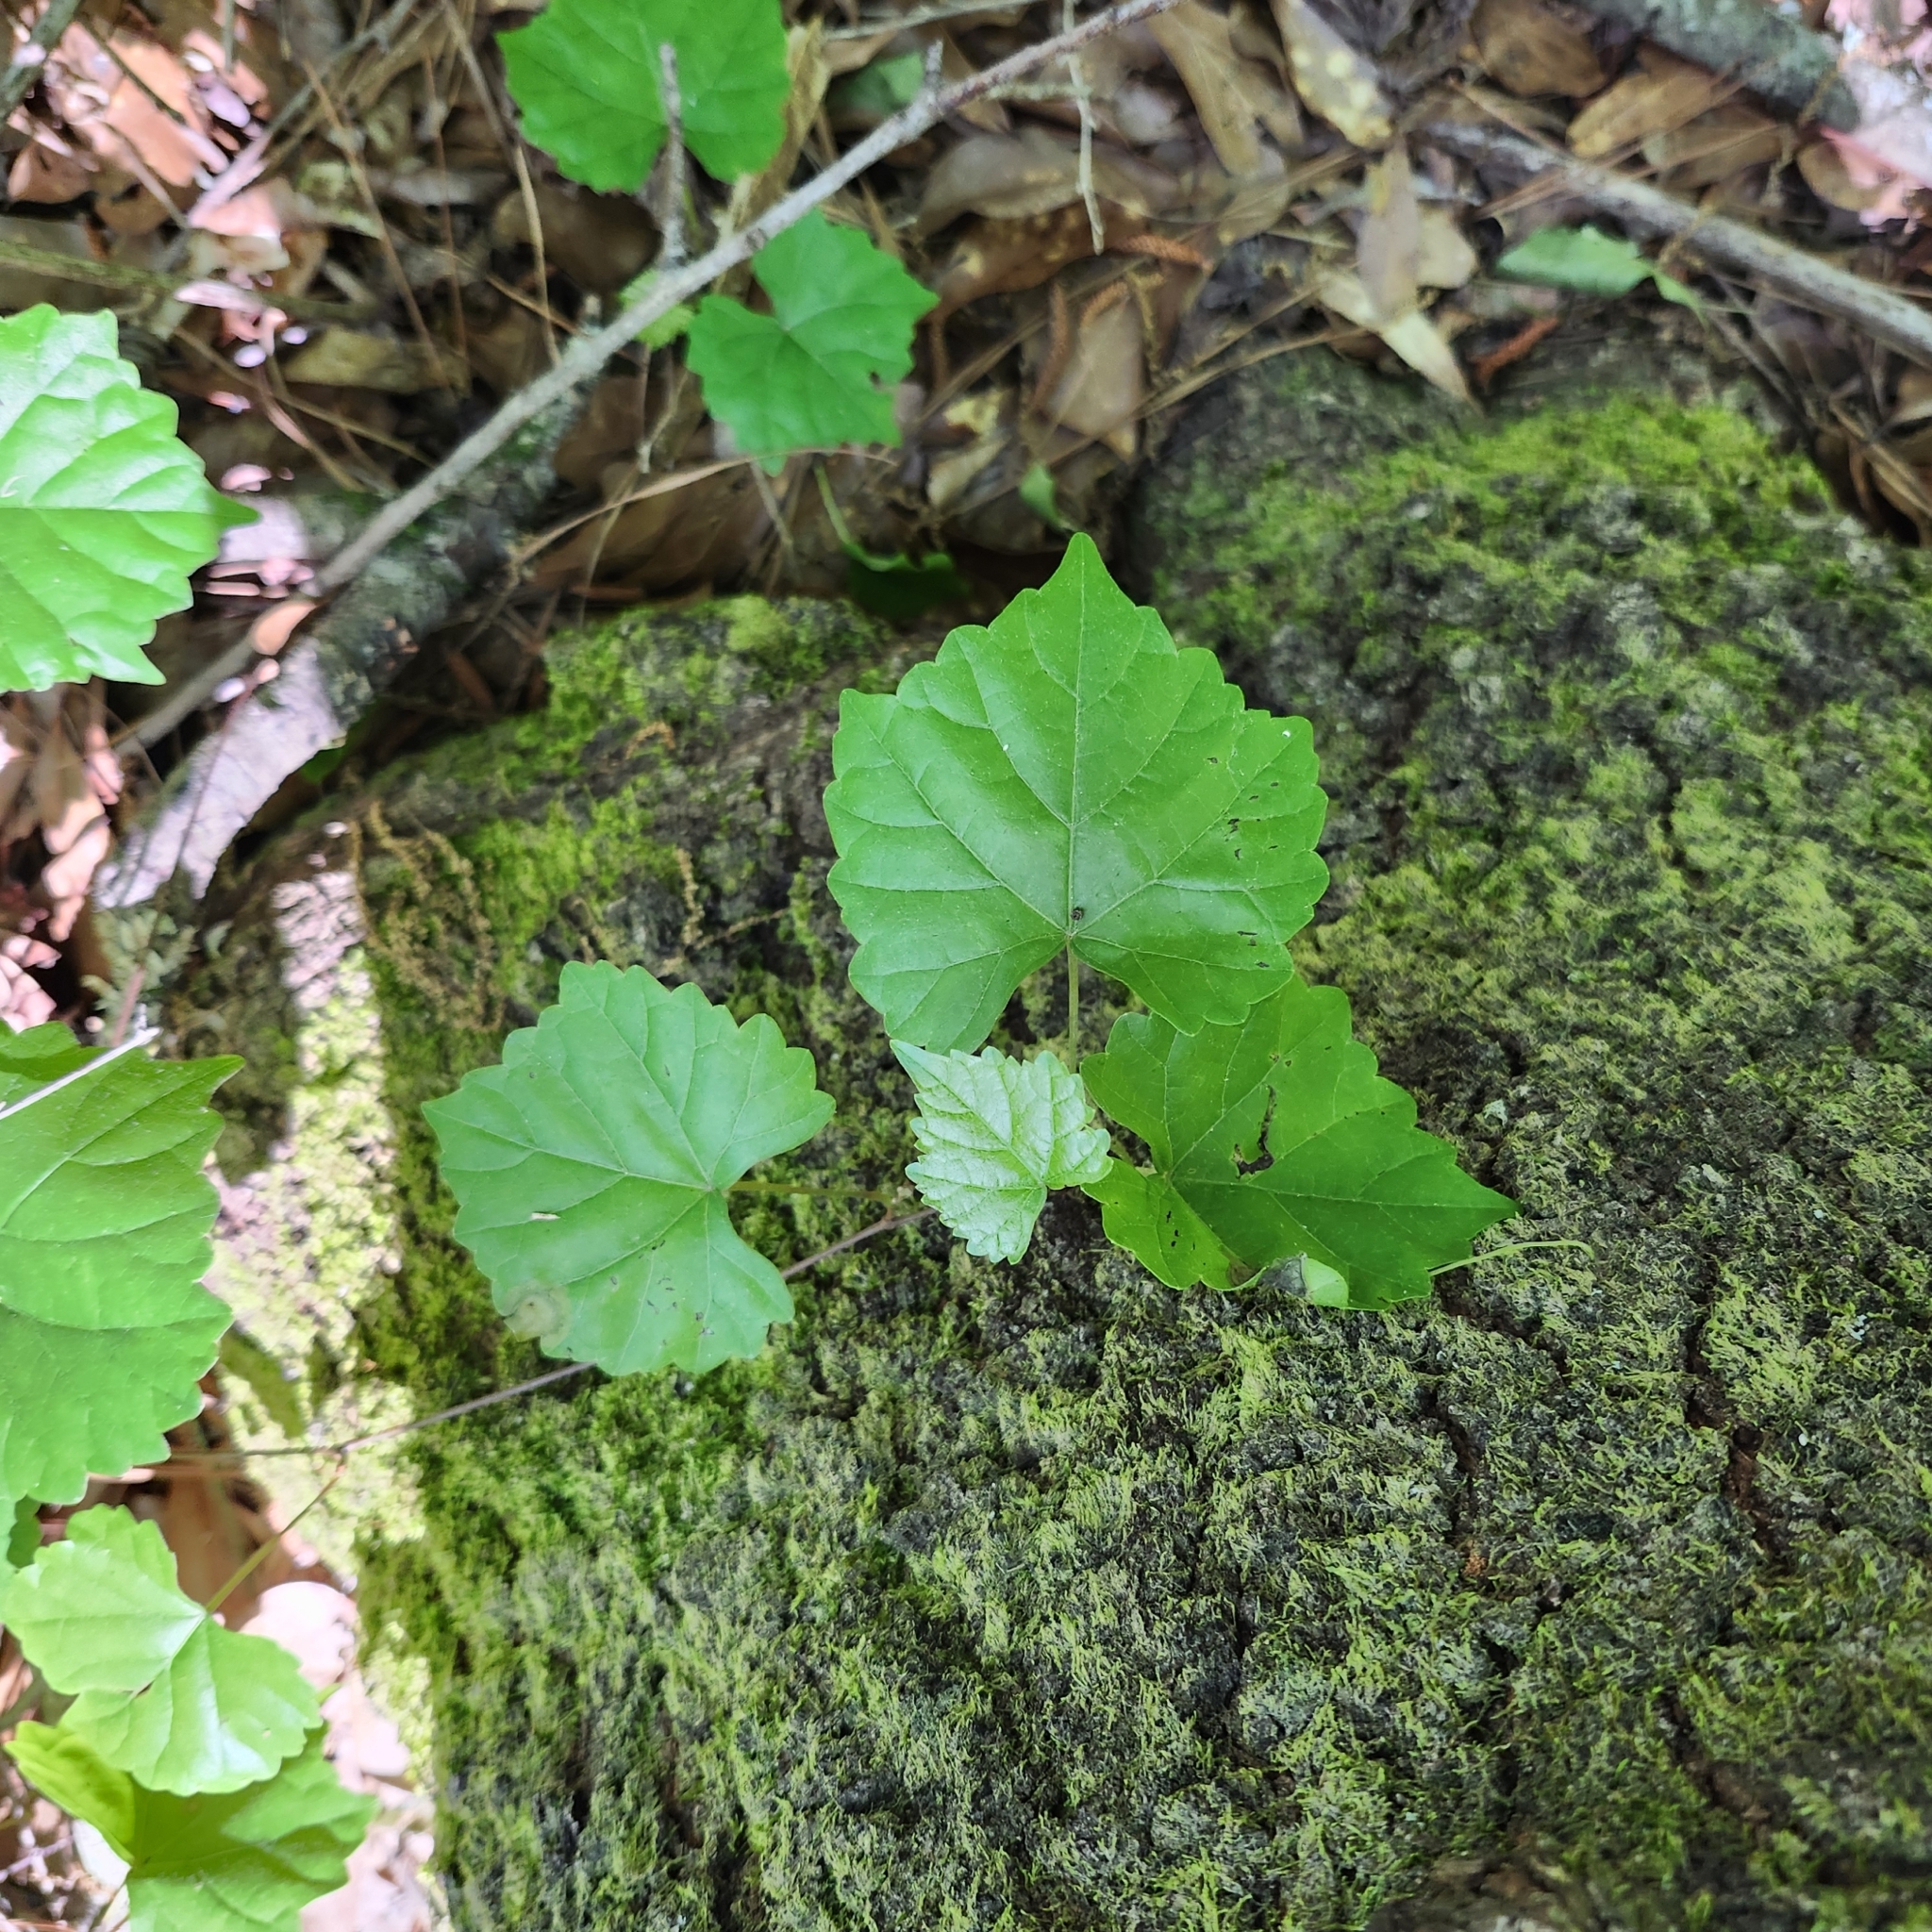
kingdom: Plantae
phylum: Tracheophyta
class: Magnoliopsida
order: Vitales
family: Vitaceae
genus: Vitis
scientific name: Vitis rotundifolia
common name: Muscadine grape
